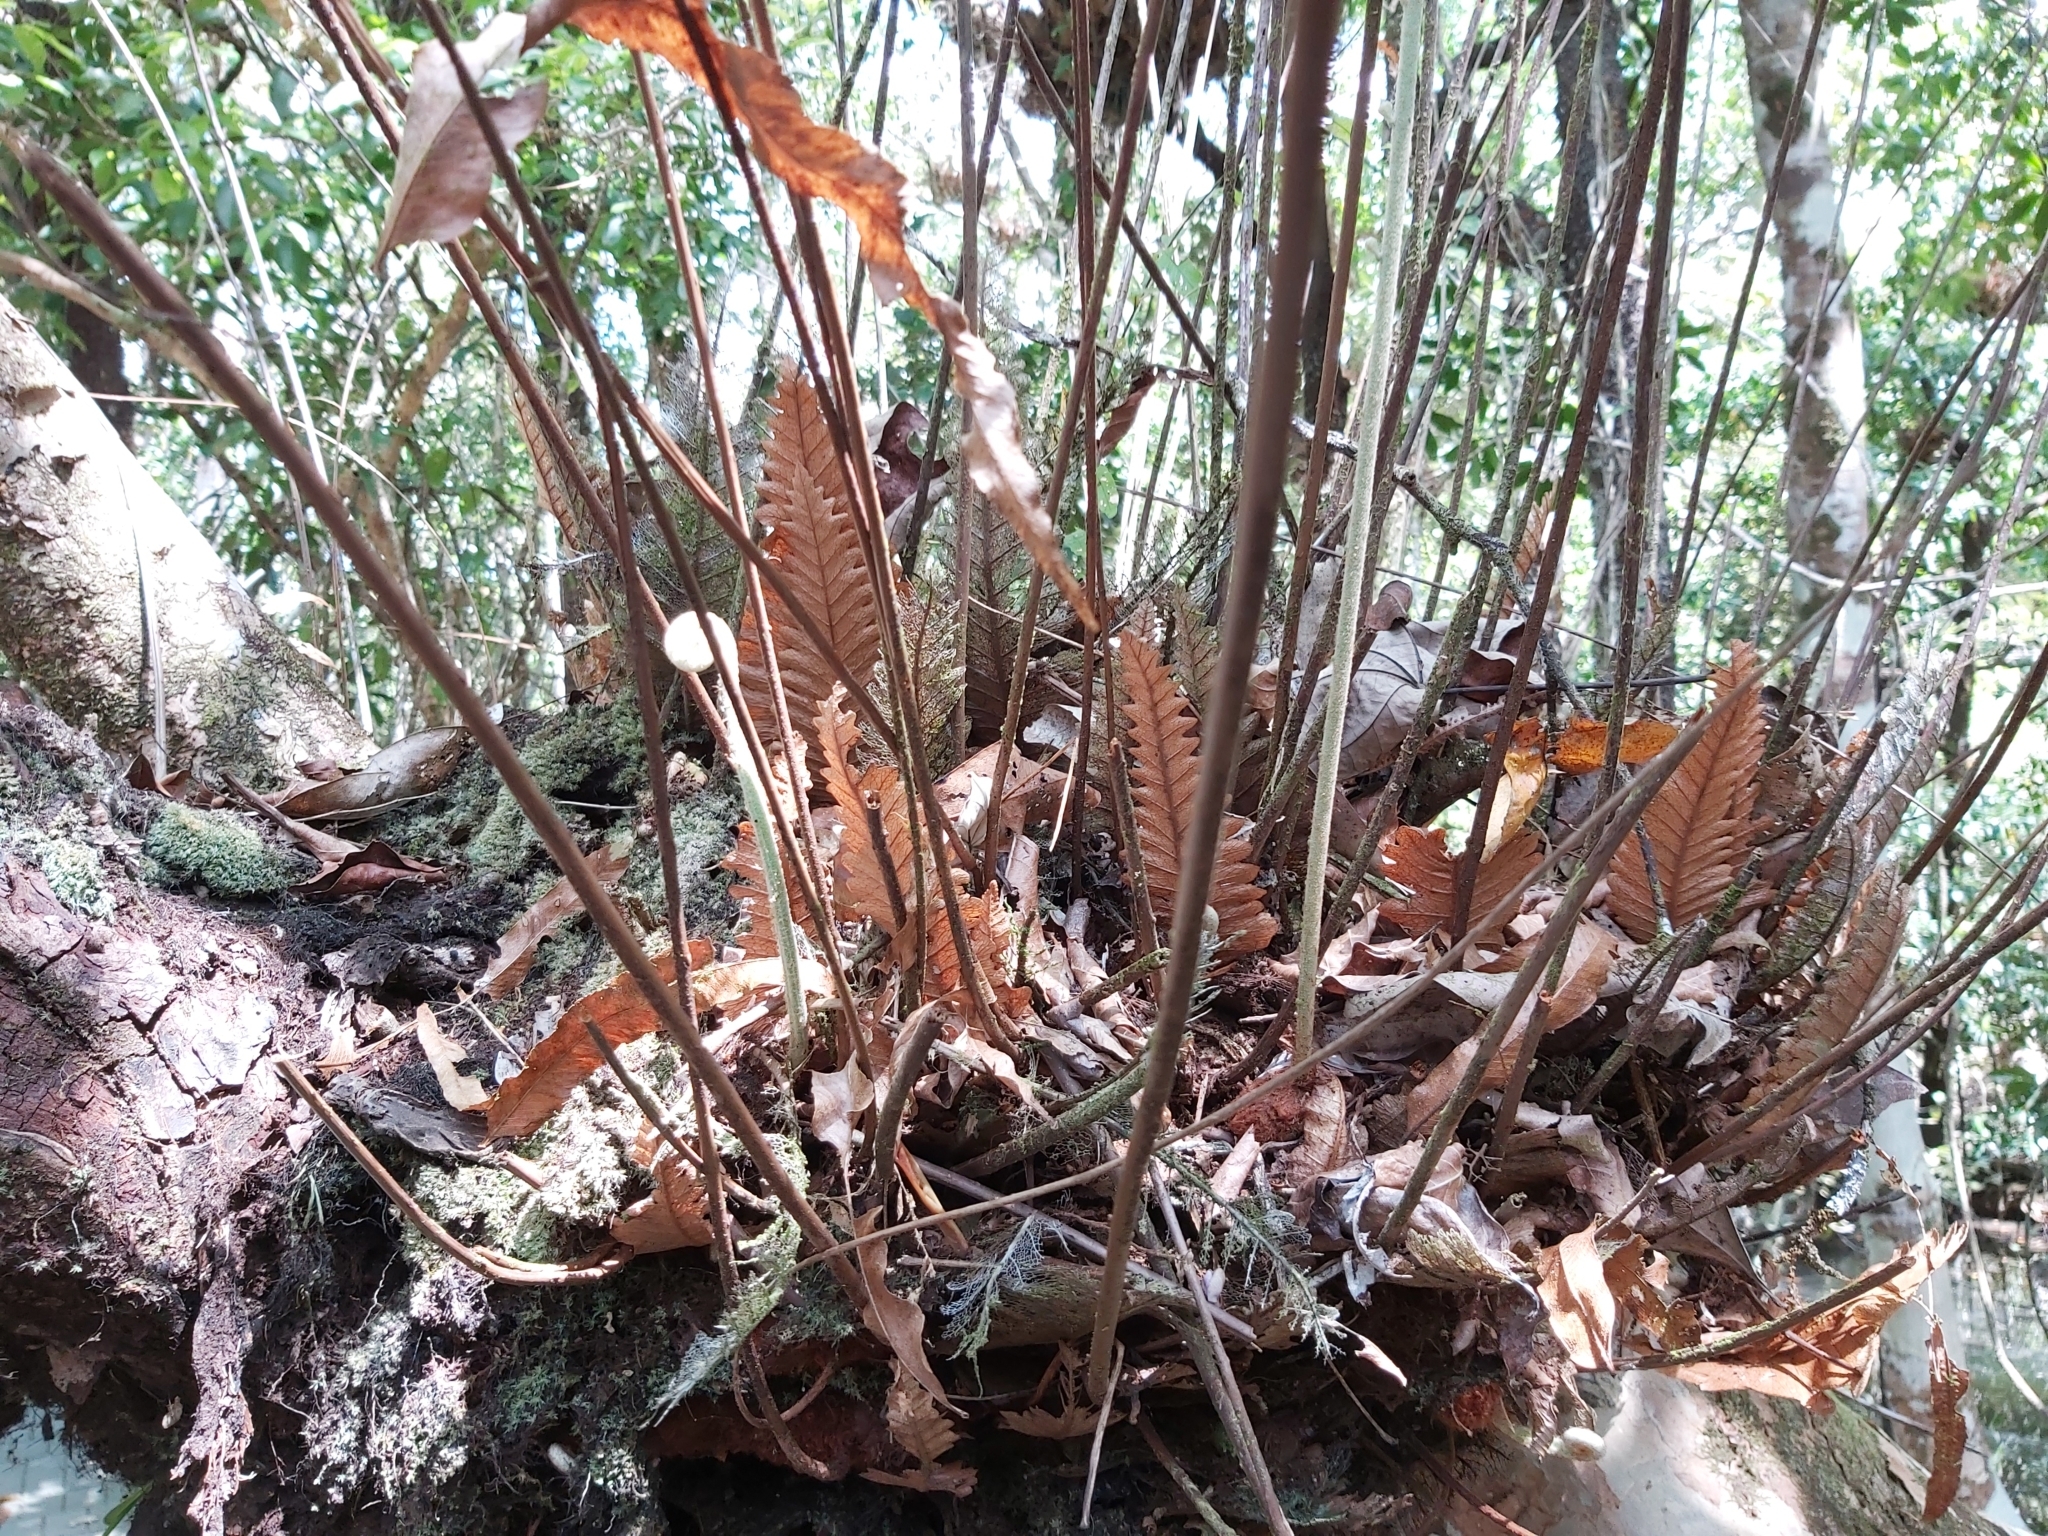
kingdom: Plantae
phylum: Tracheophyta
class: Polypodiopsida
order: Polypodiales
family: Polypodiaceae
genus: Drynaria
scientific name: Drynaria rigidula
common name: Basket fern
